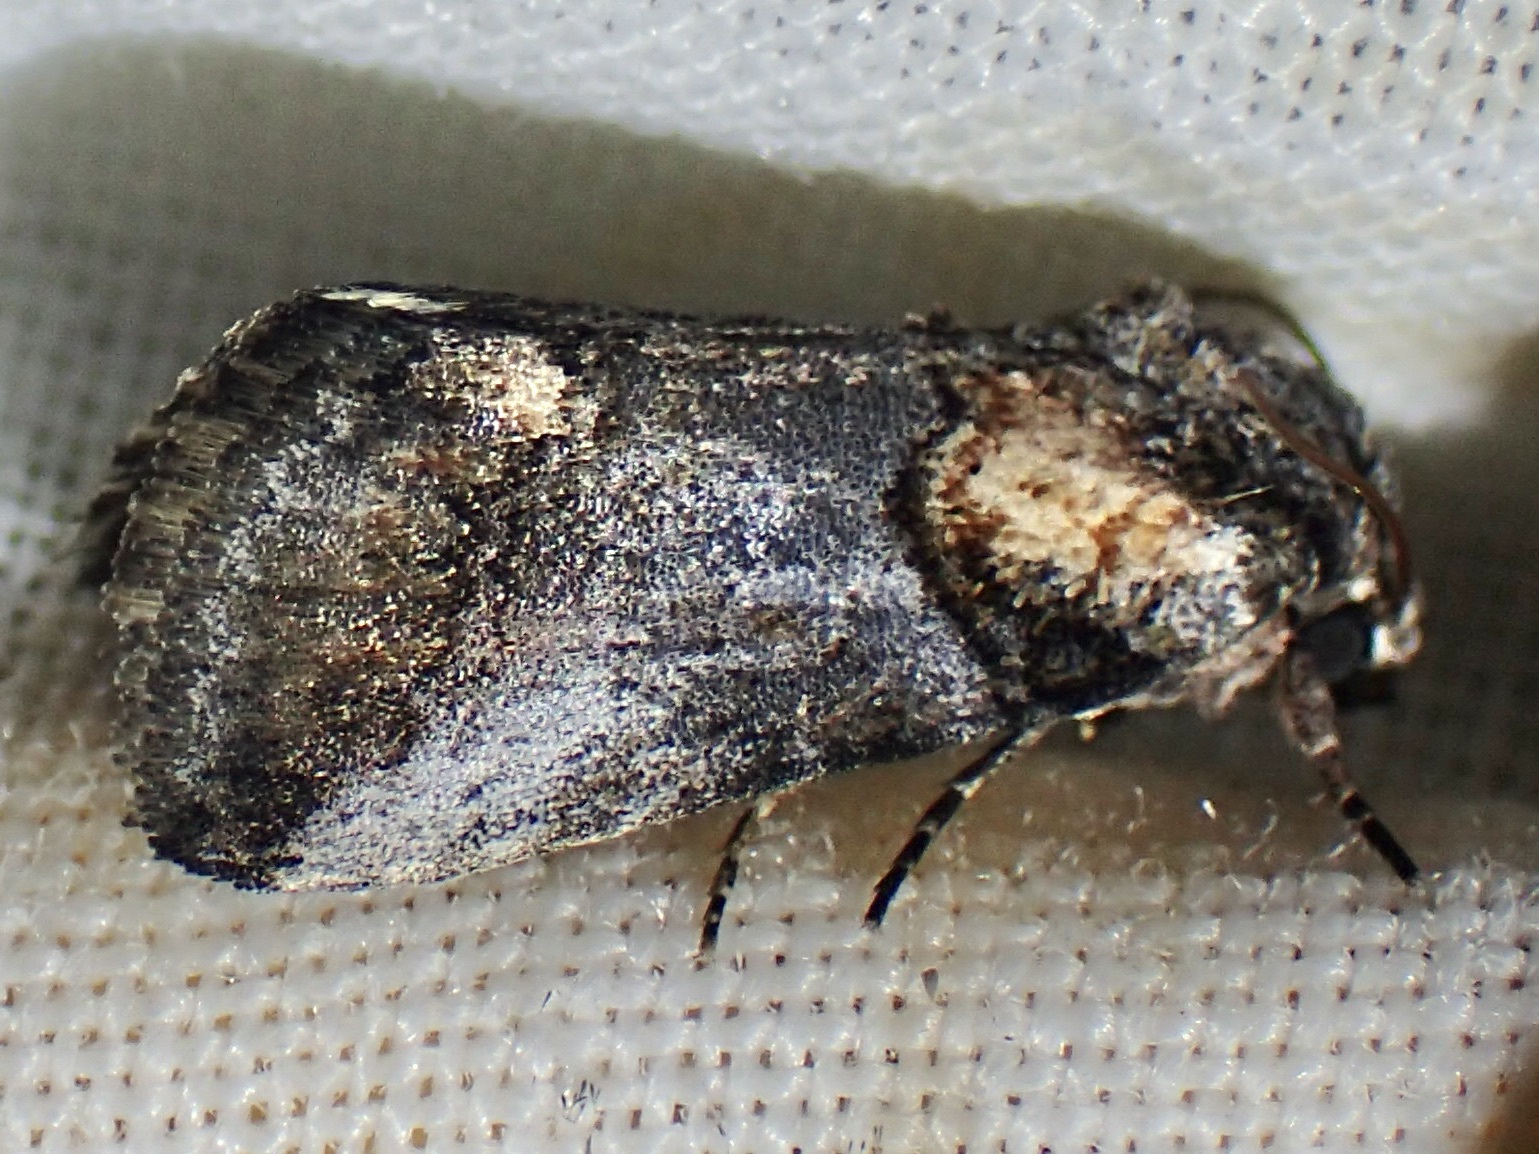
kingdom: Animalia
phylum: Arthropoda
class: Insecta
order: Lepidoptera
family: Noctuidae
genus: Aleptina
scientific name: Aleptina clinopetes
